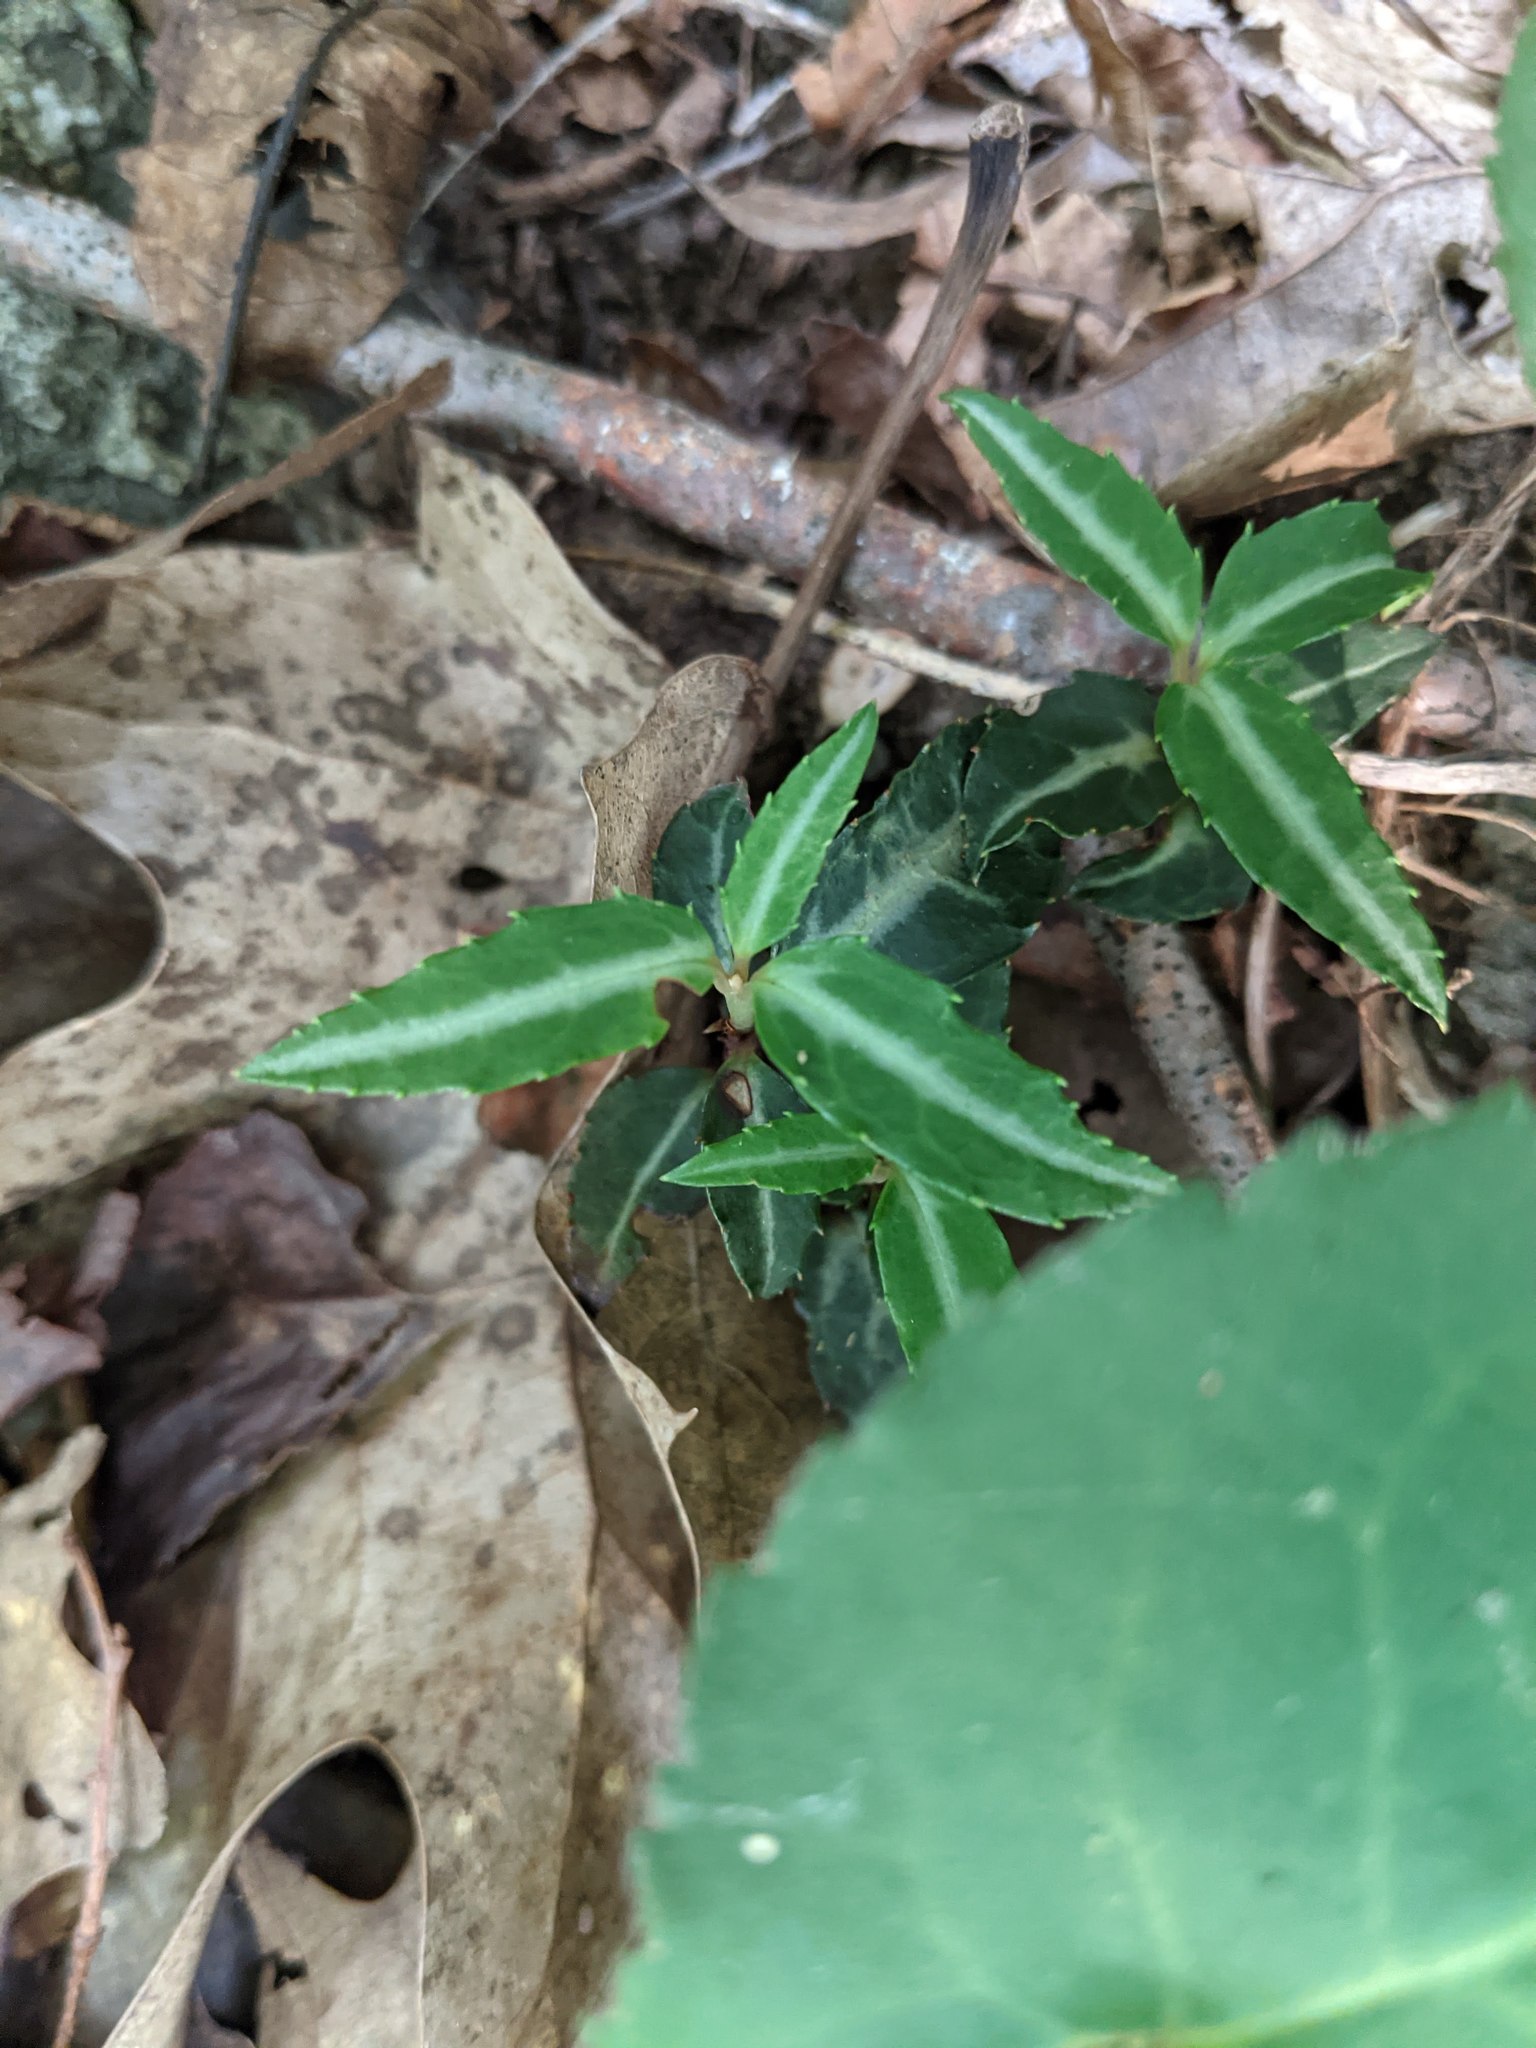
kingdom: Plantae
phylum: Tracheophyta
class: Magnoliopsida
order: Ericales
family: Ericaceae
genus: Chimaphila
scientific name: Chimaphila maculata
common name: Spotted pipsissewa
